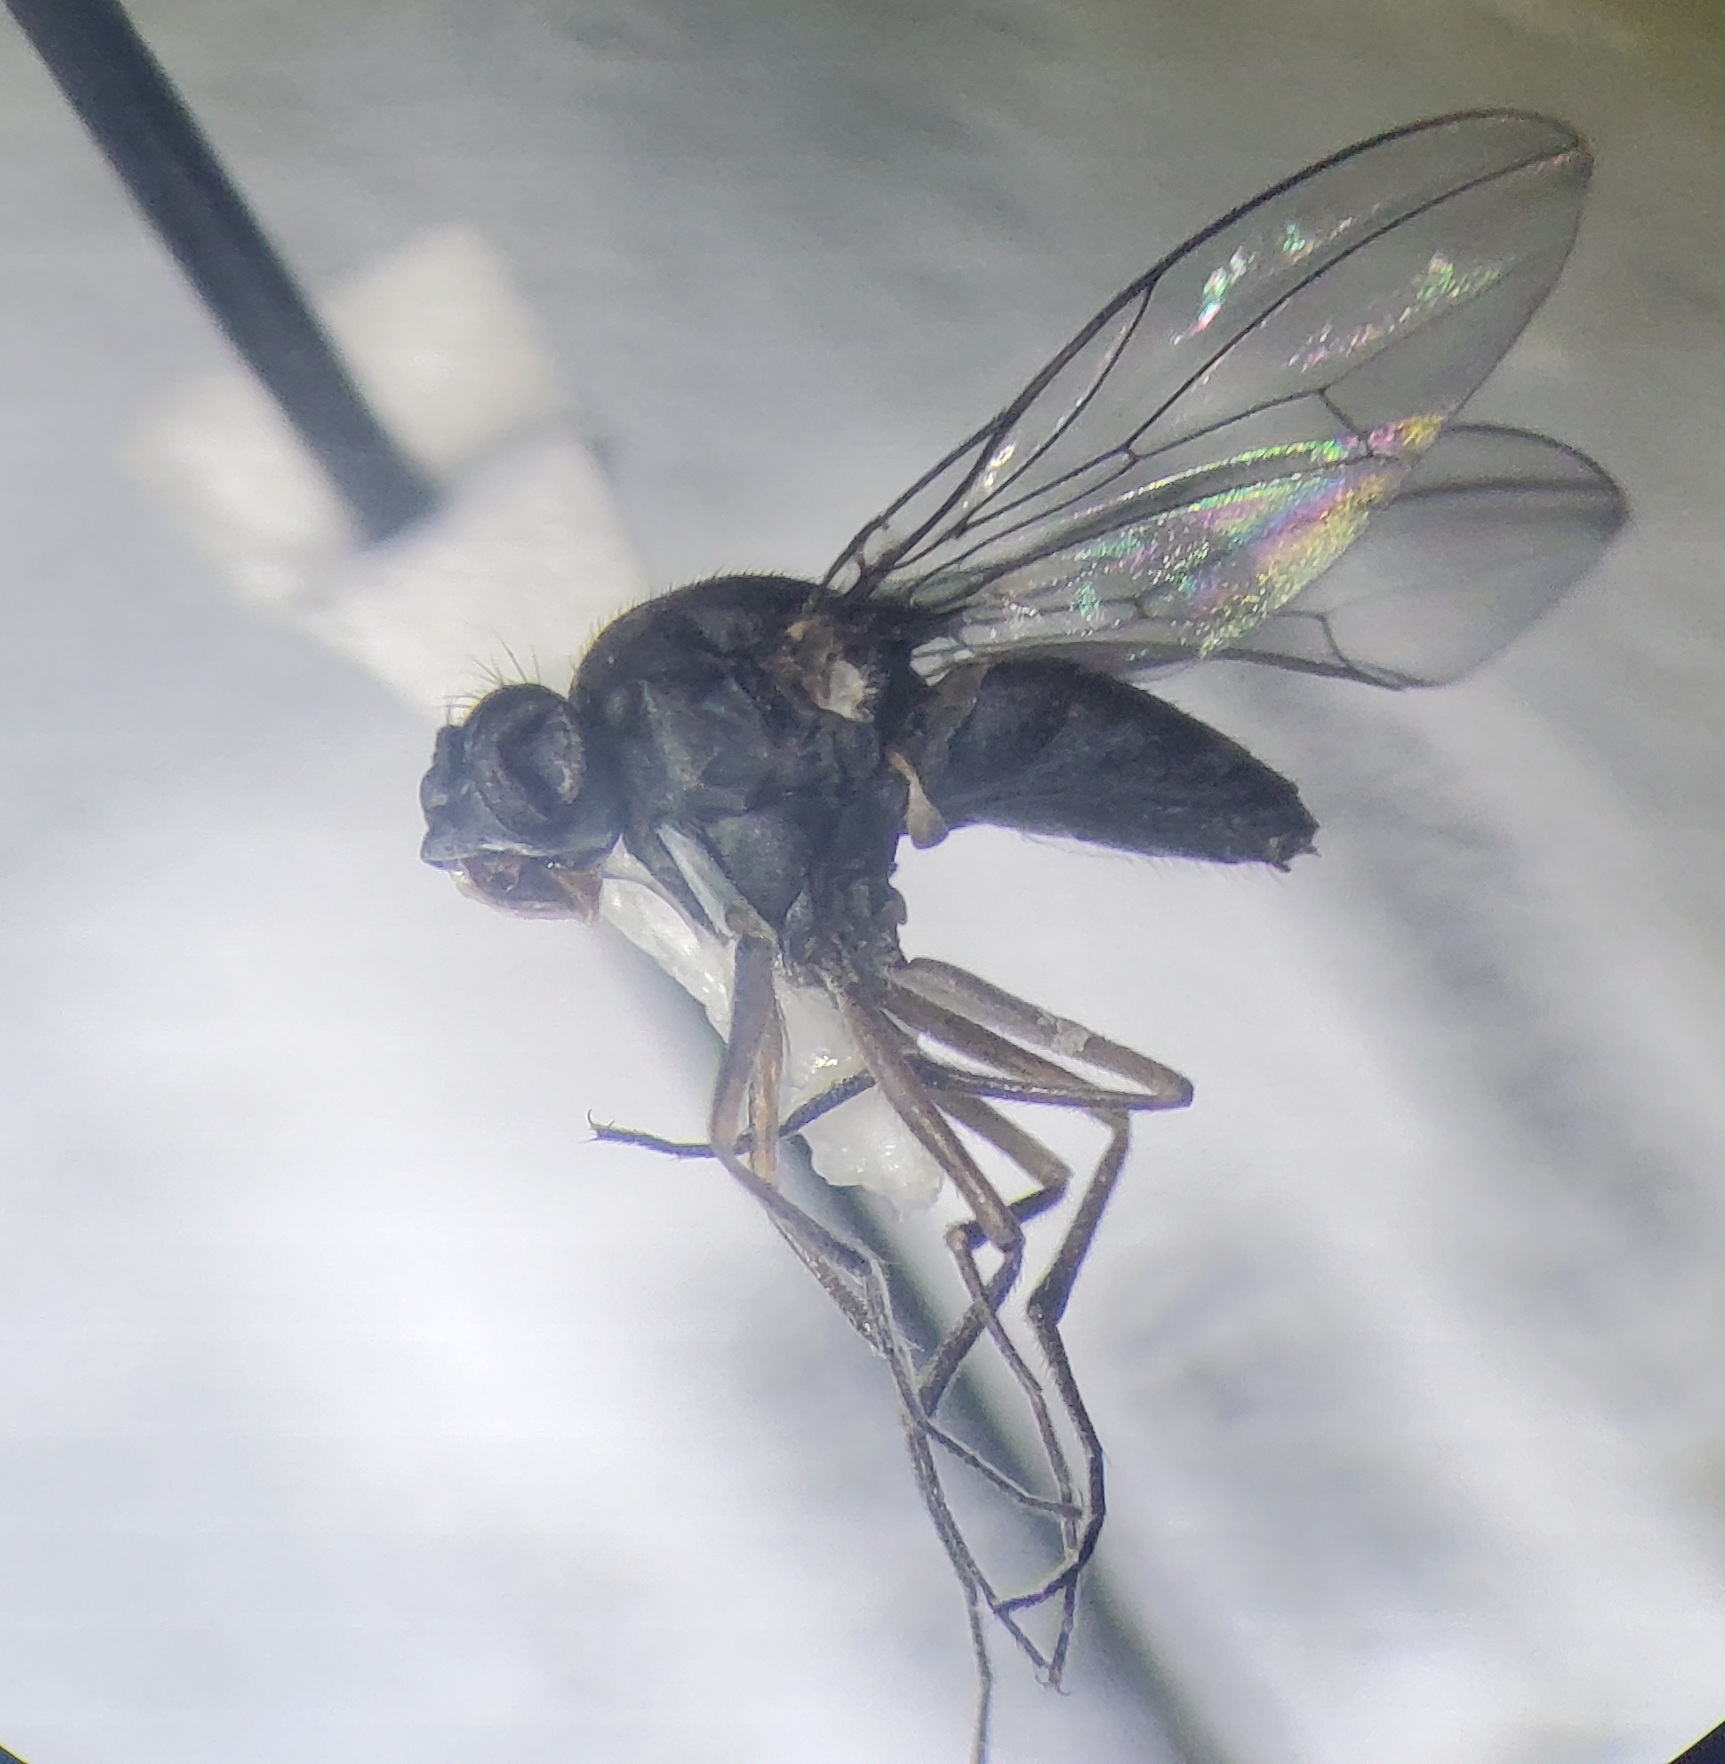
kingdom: Animalia
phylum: Arthropoda
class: Insecta
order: Diptera
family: Ephydridae
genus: Brachydeutera
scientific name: Brachydeutera argentata
